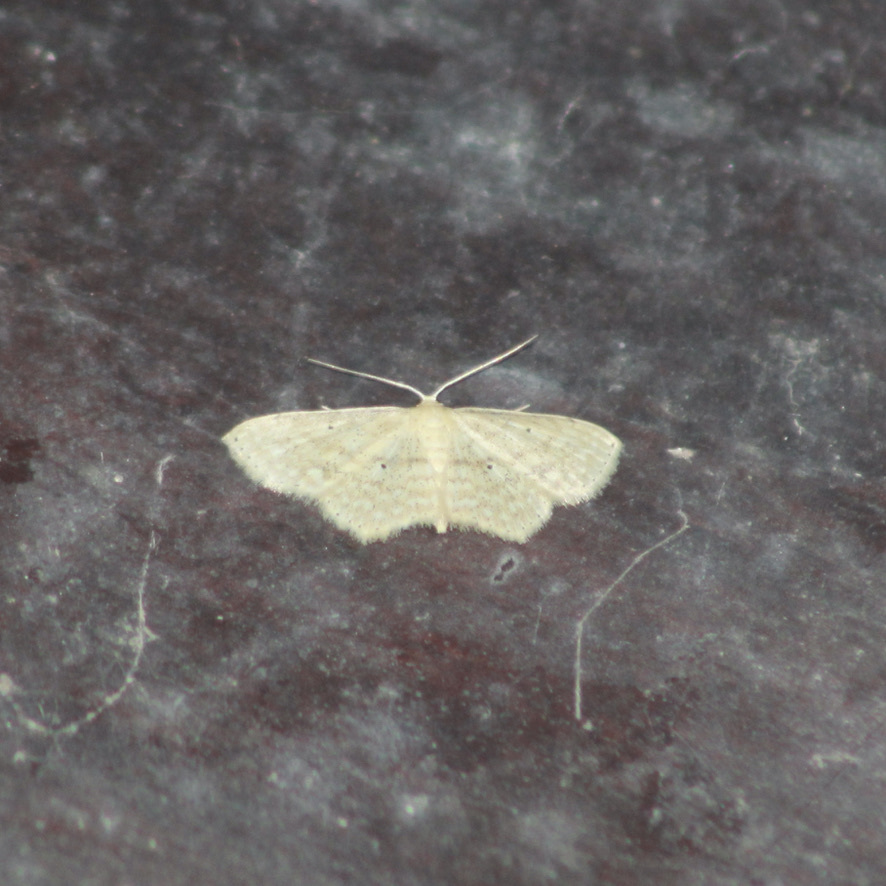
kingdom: Animalia
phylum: Arthropoda
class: Insecta
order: Lepidoptera
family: Geometridae
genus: Scopula
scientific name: Scopula apparitaria
